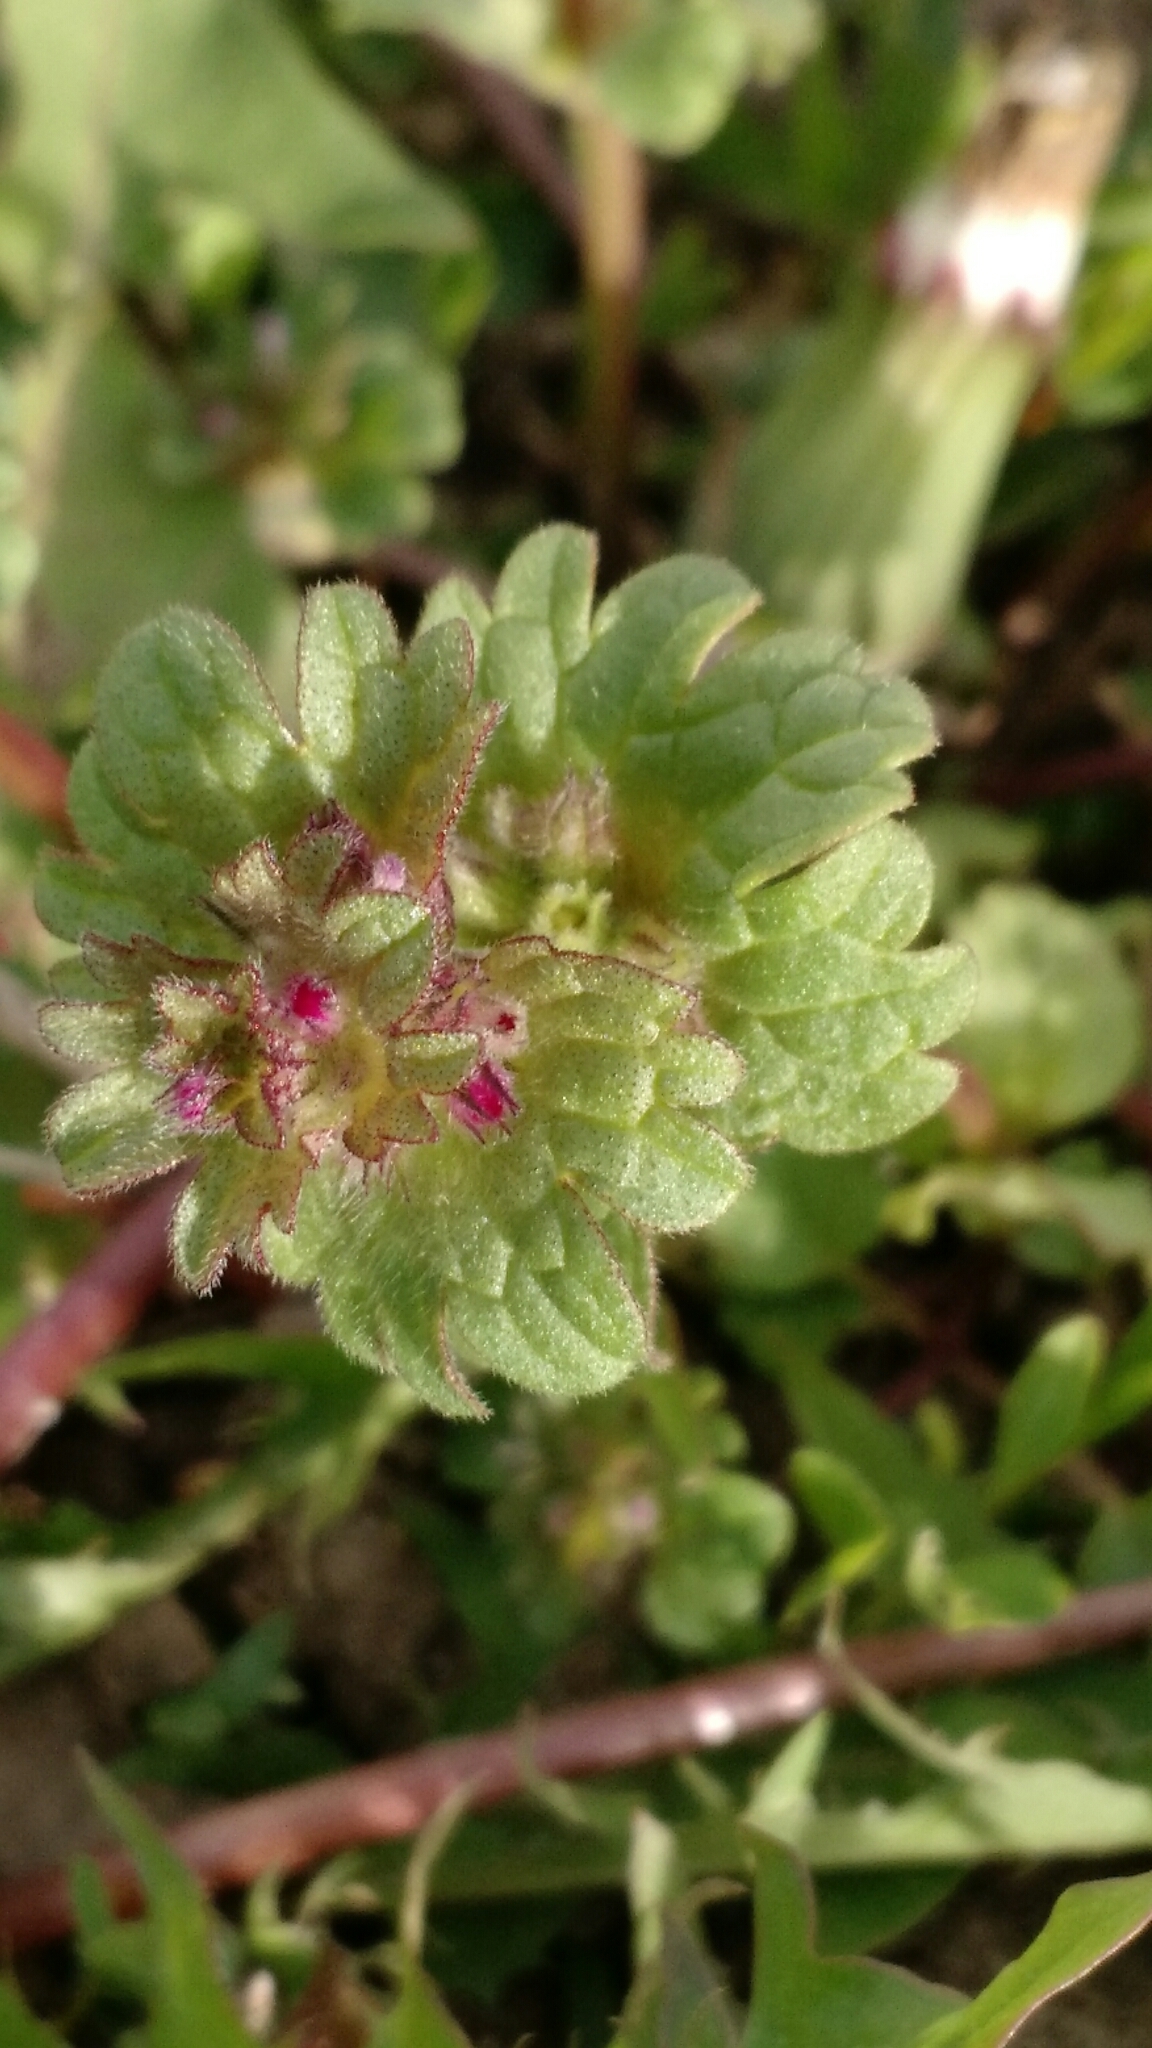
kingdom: Plantae
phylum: Tracheophyta
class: Magnoliopsida
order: Lamiales
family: Lamiaceae
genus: Lamium
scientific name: Lamium amplexicaule
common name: Henbit dead-nettle
